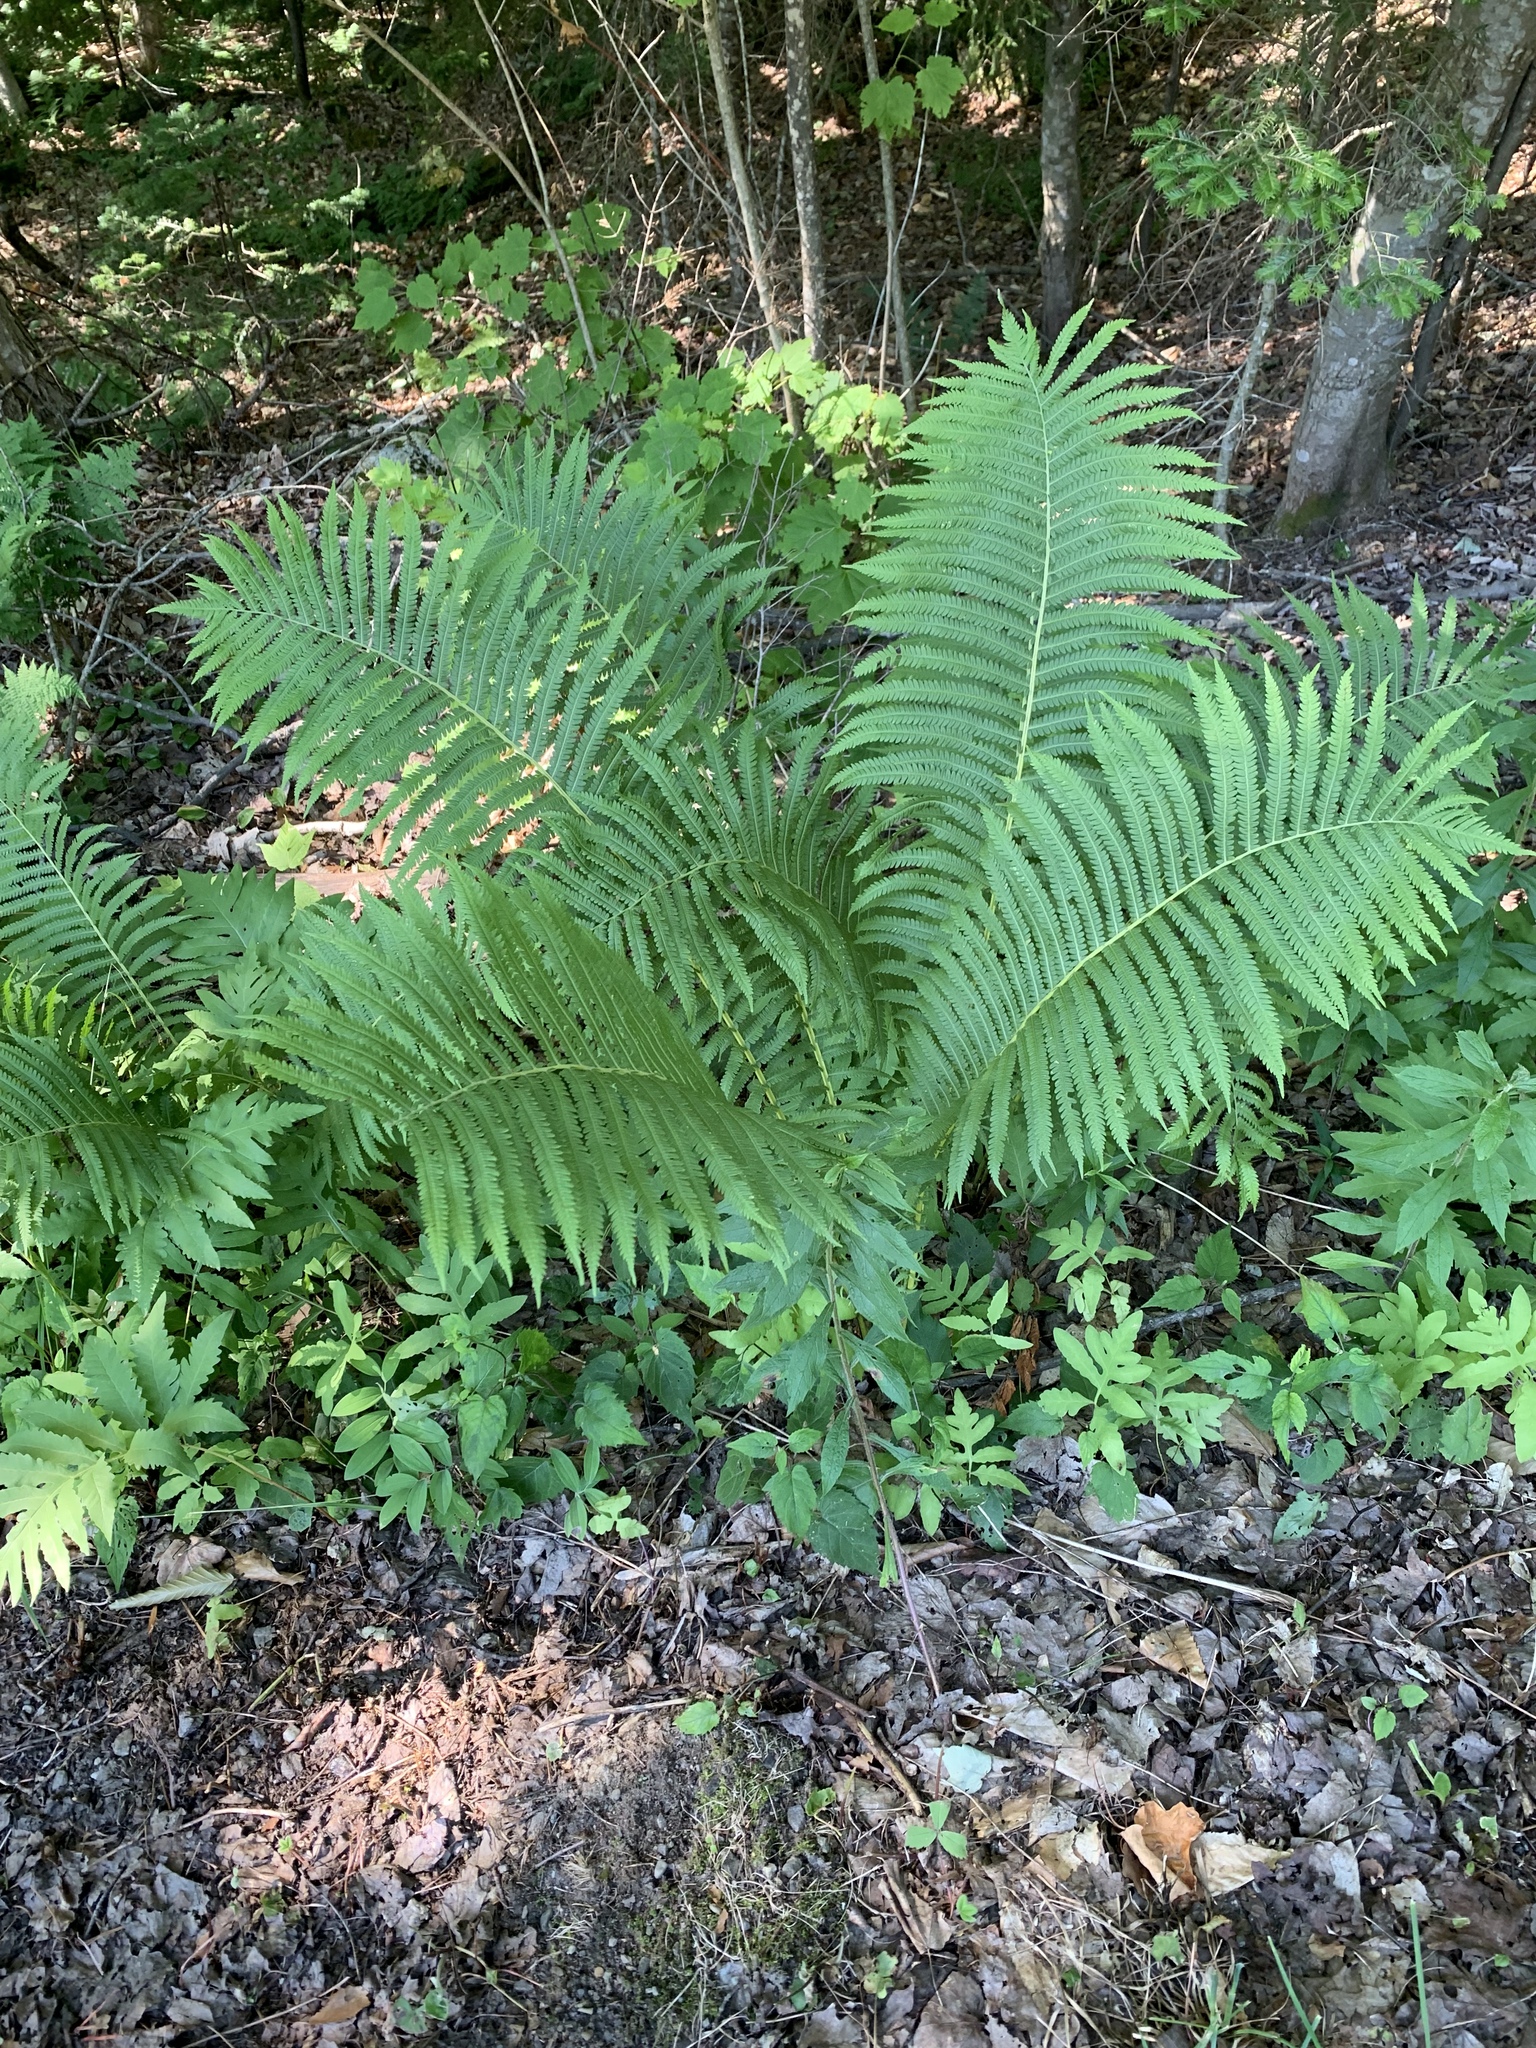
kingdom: Plantae
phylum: Tracheophyta
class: Polypodiopsida
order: Polypodiales
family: Onocleaceae
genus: Matteuccia
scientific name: Matteuccia struthiopteris
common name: Ostrich fern
